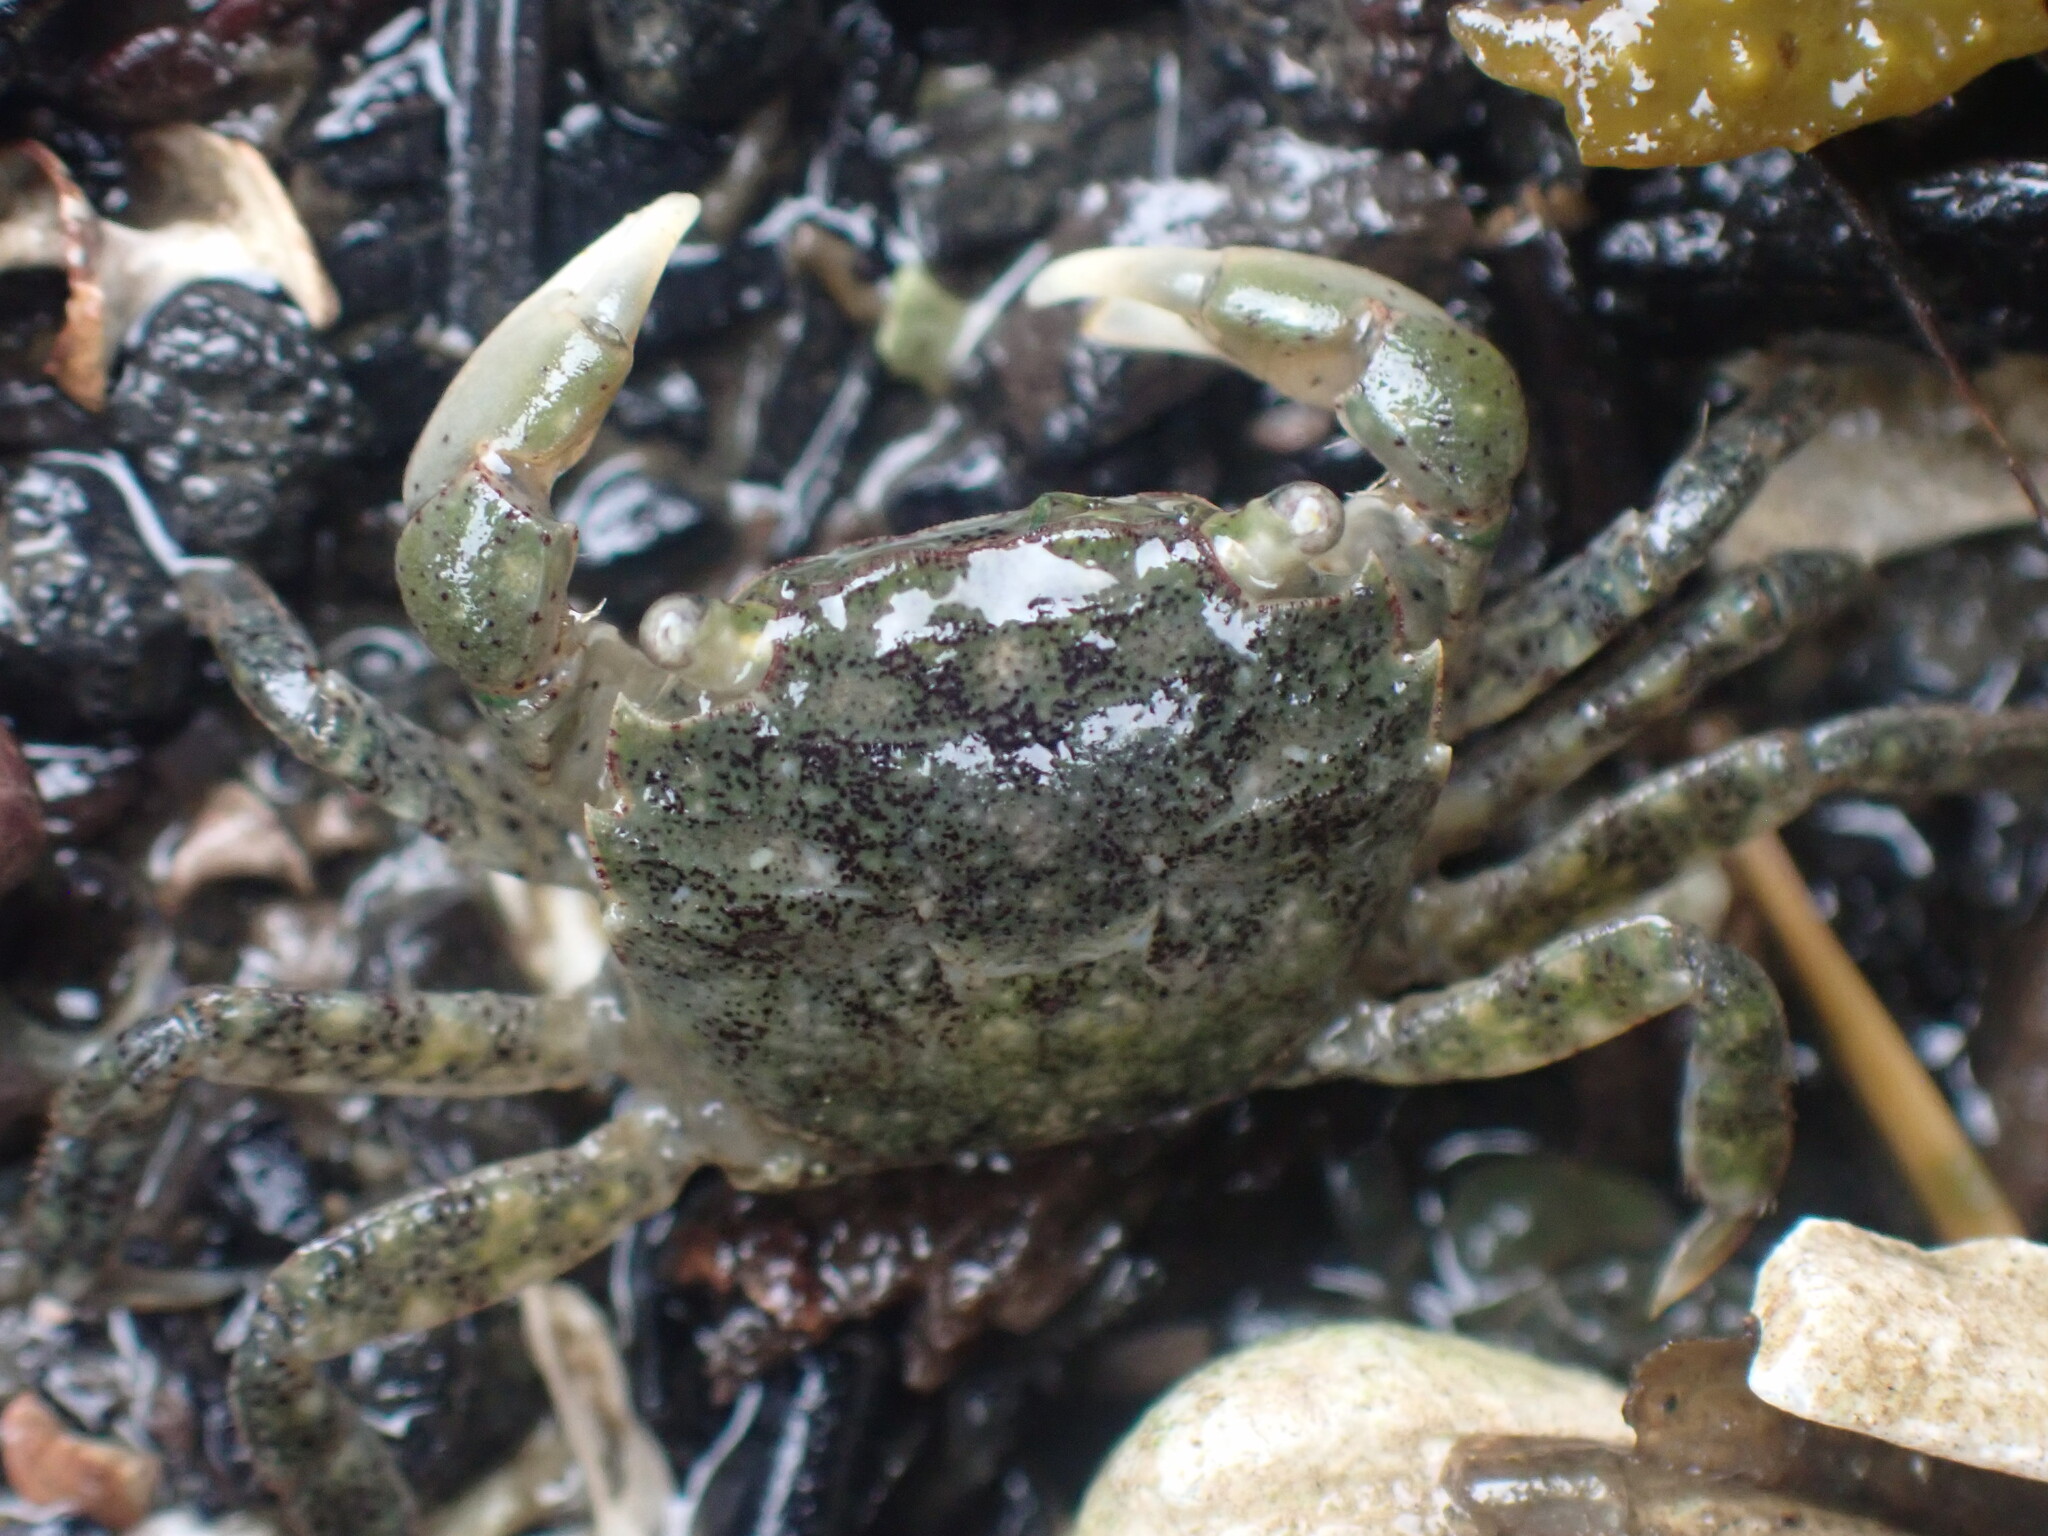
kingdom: Animalia
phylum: Arthropoda
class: Malacostraca
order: Decapoda
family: Varunidae
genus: Hemigrapsus
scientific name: Hemigrapsus oregonensis
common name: Yellow shore crab
